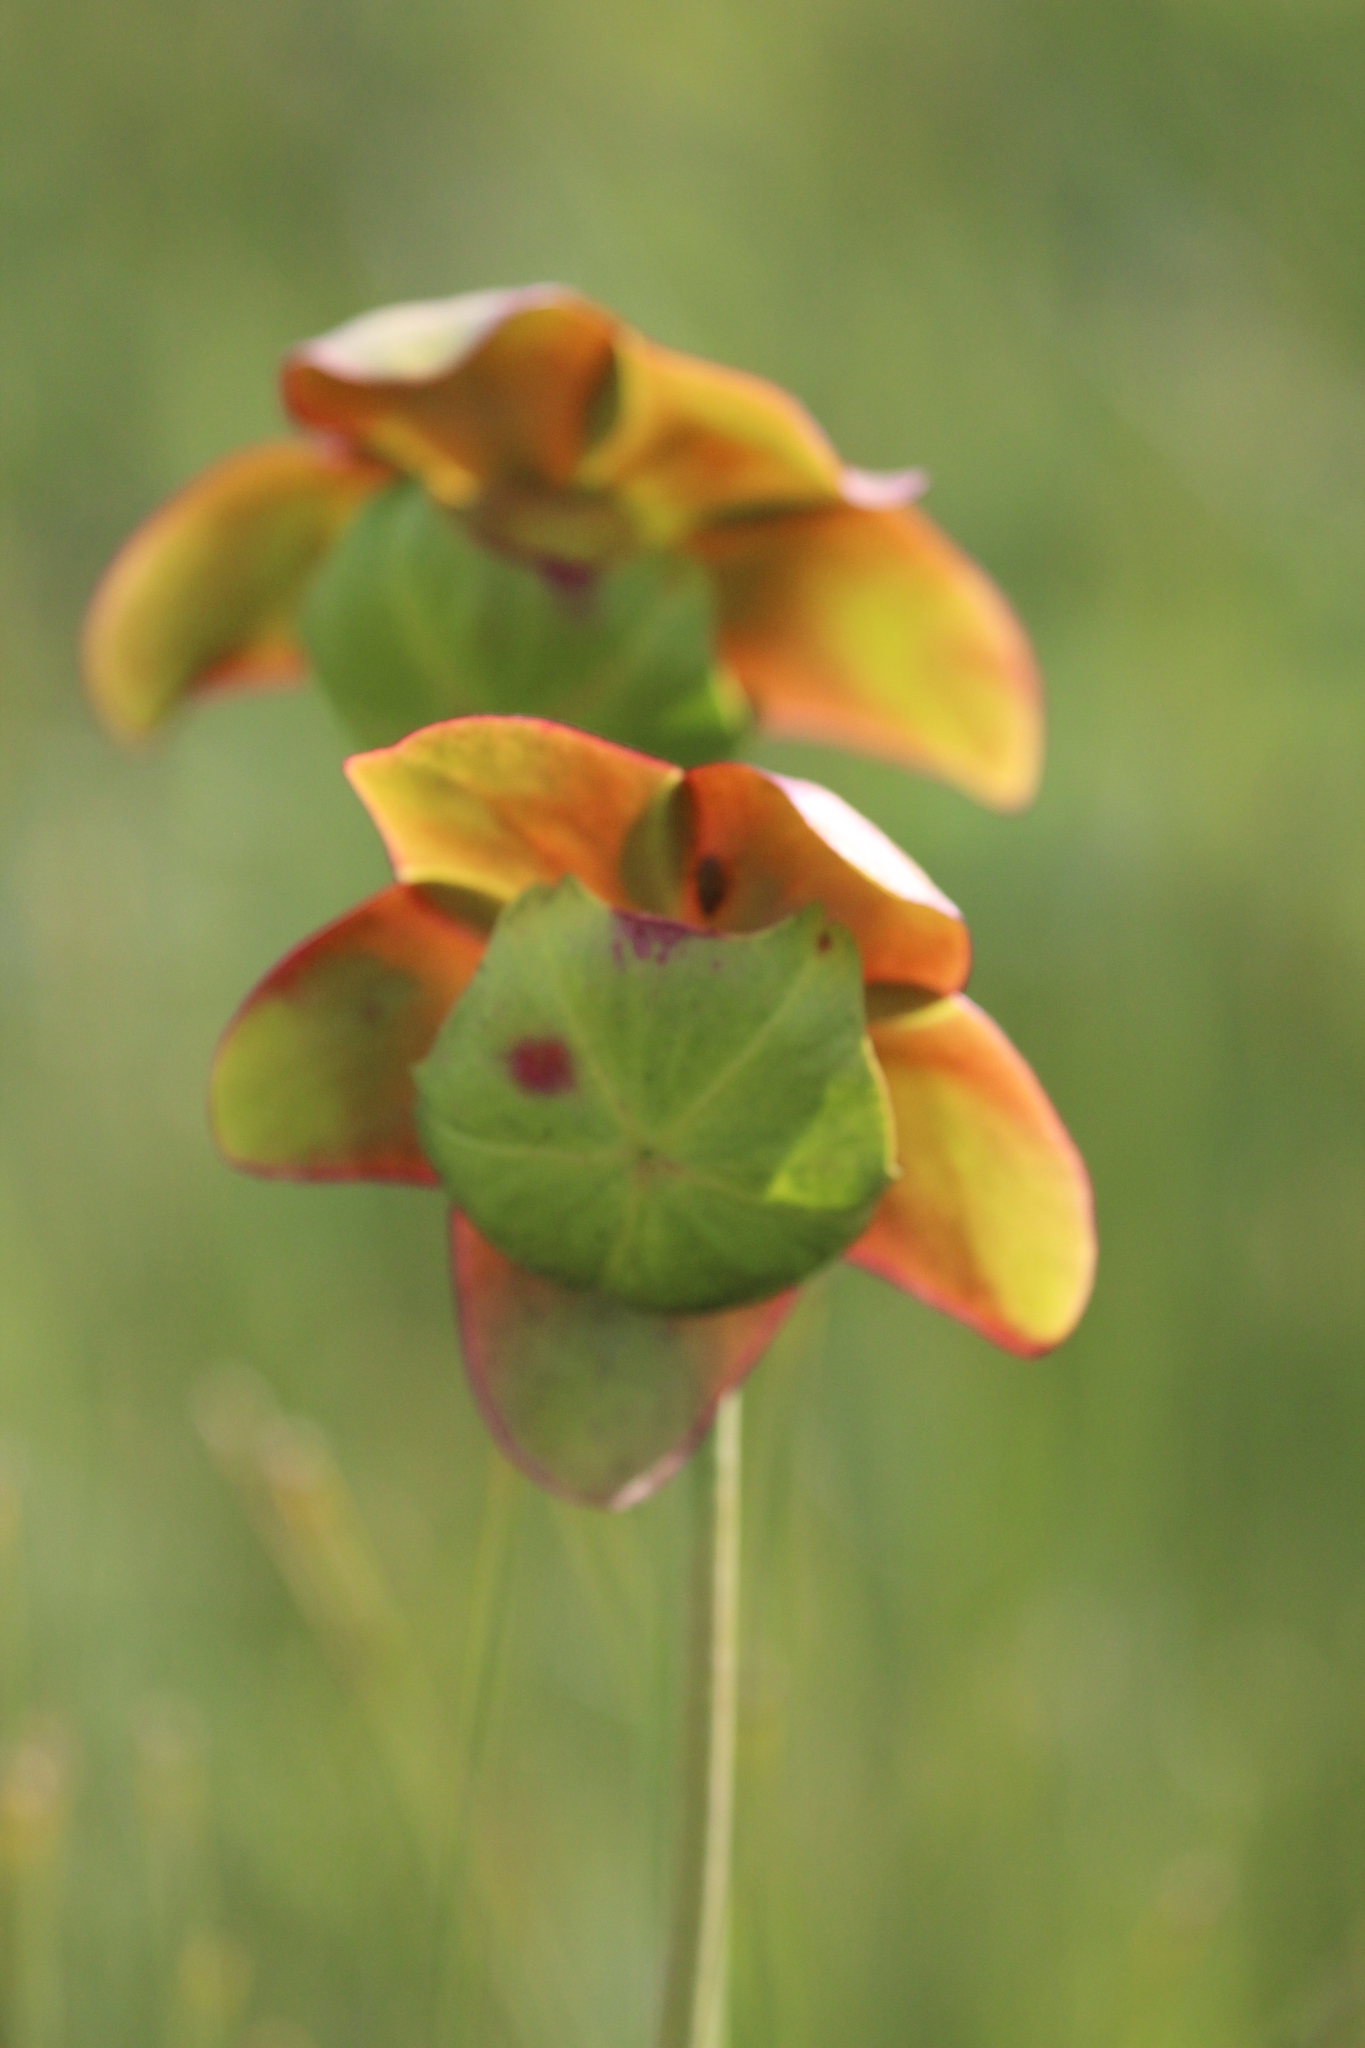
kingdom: Plantae
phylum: Tracheophyta
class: Magnoliopsida
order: Ericales
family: Sarraceniaceae
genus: Sarracenia
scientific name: Sarracenia purpurea
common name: Pitcherplant
